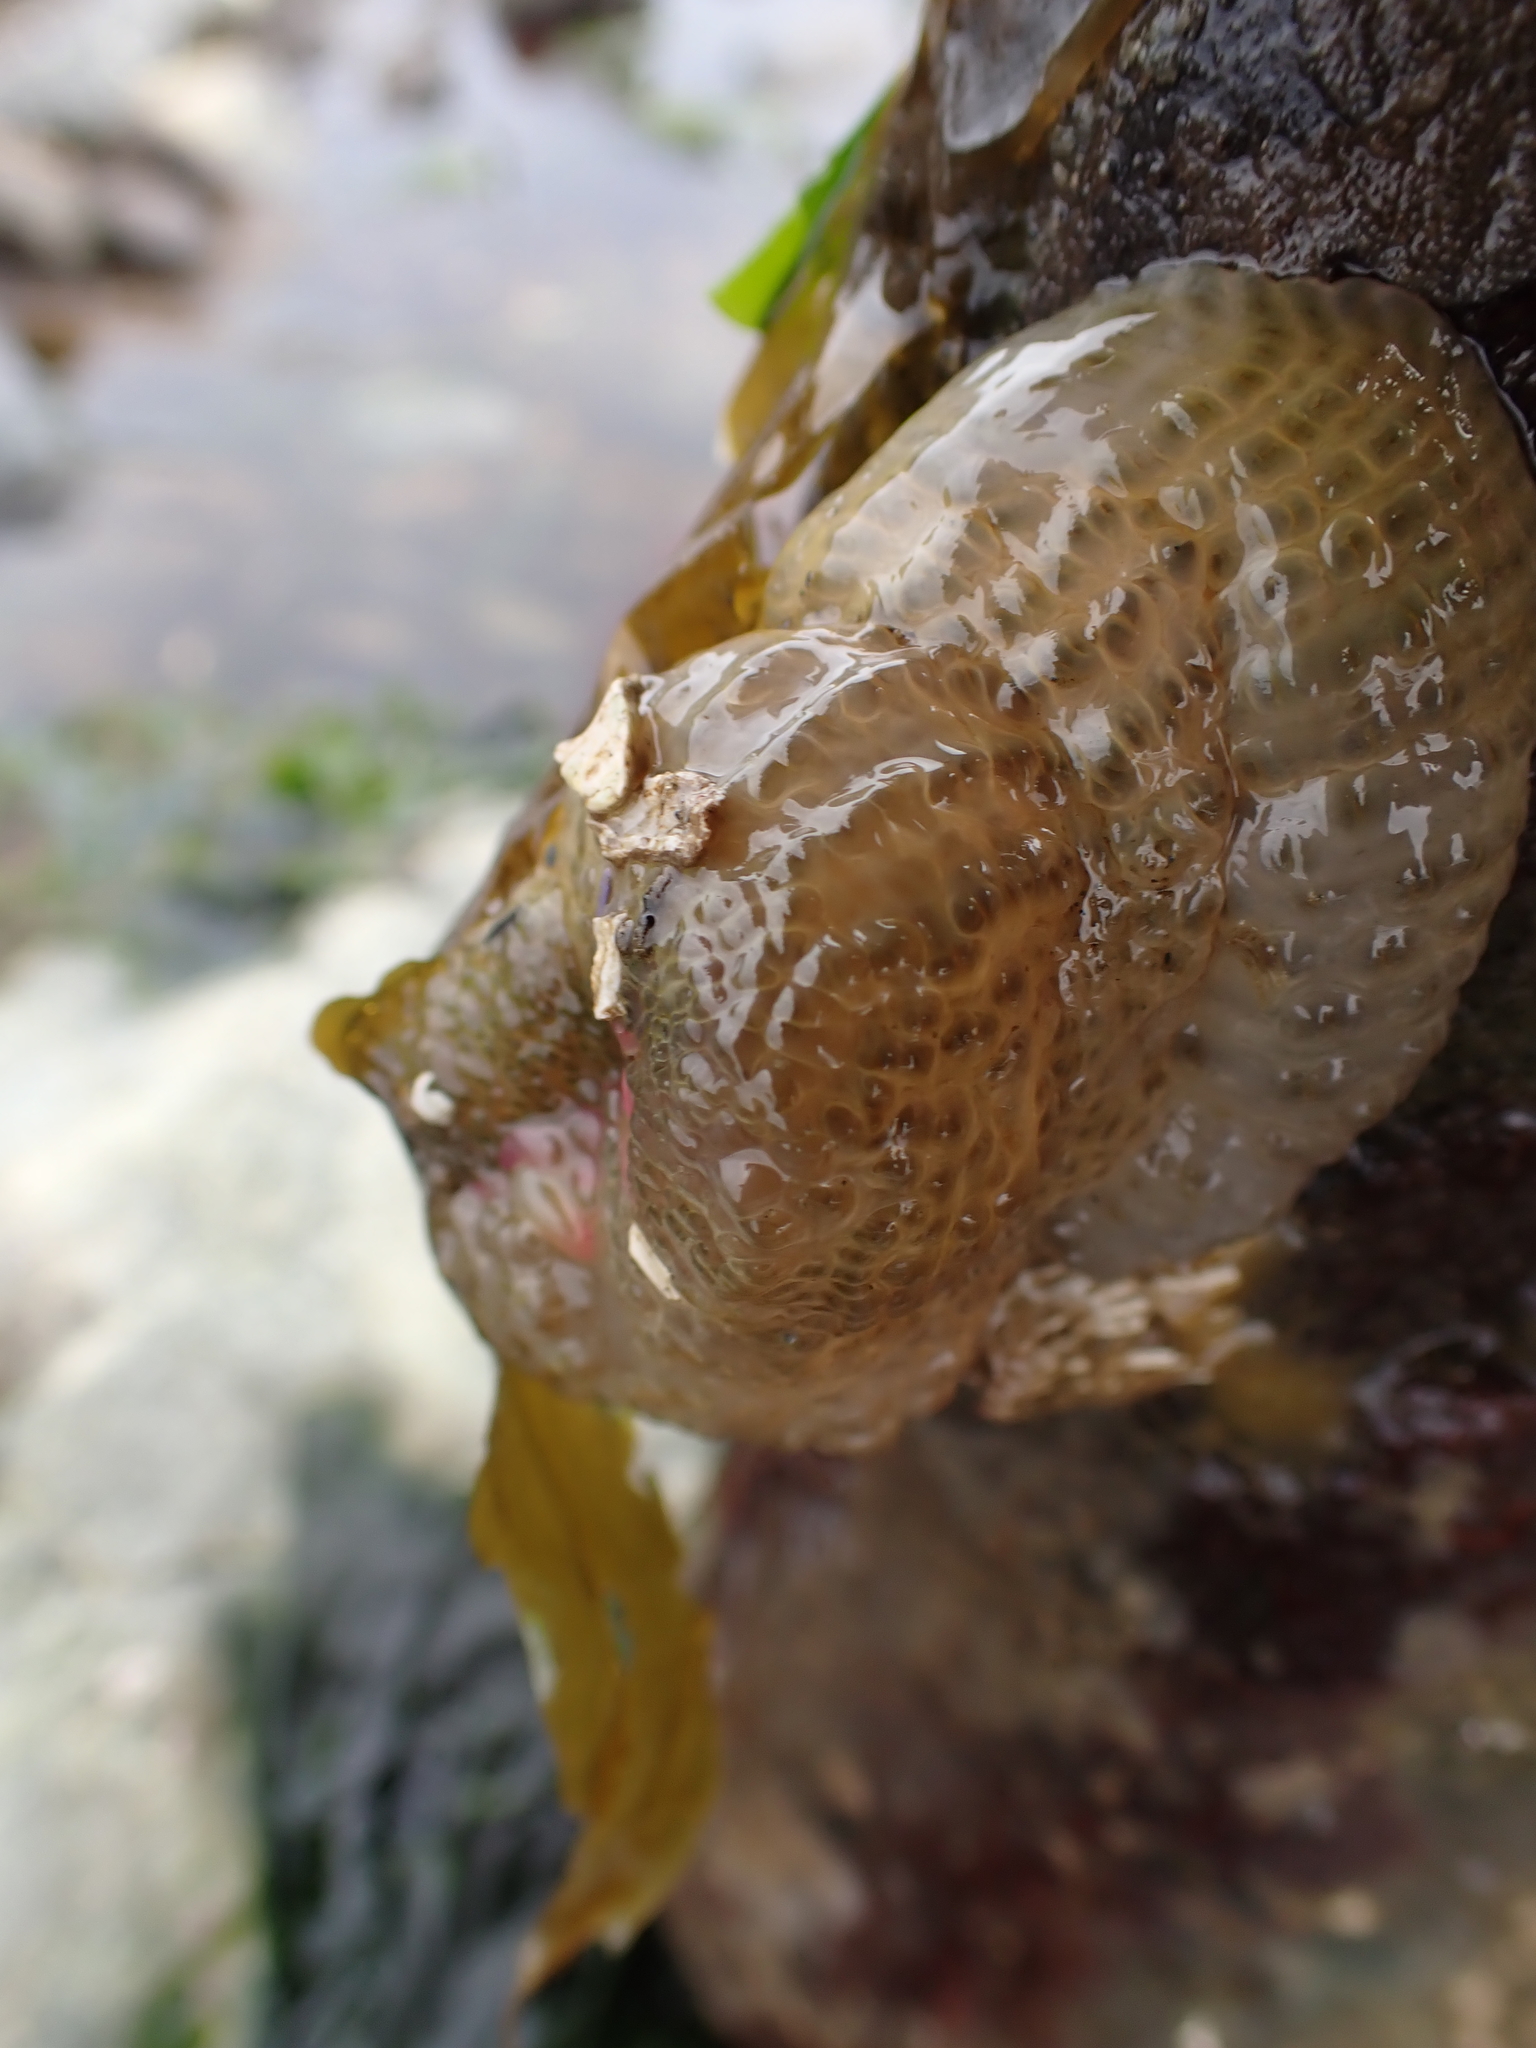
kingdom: Animalia
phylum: Cnidaria
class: Anthozoa
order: Actiniaria
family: Actiniidae
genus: Anthopleura
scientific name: Anthopleura elegantissima
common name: Clonal anemone
